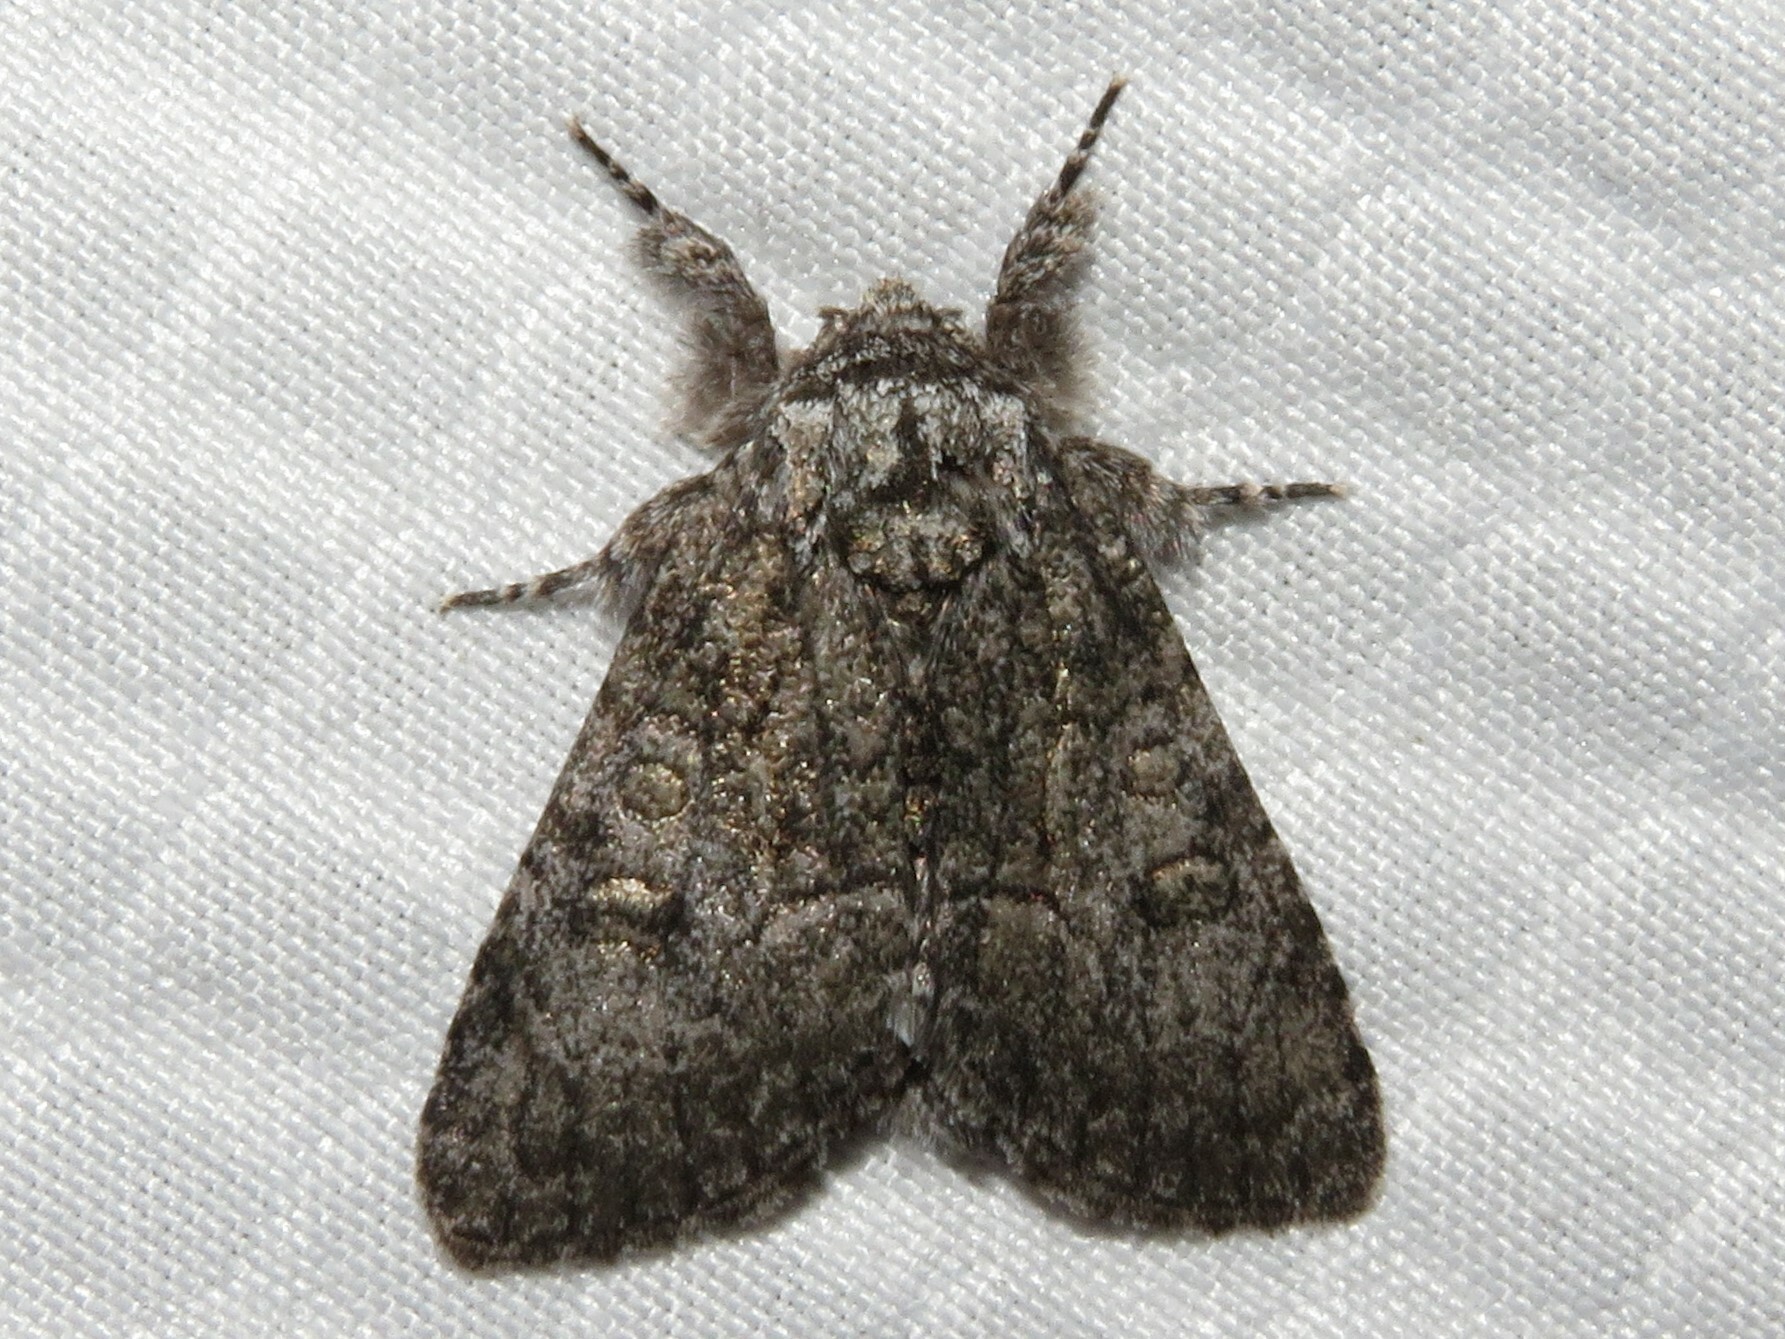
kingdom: Animalia
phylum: Arthropoda
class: Insecta
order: Lepidoptera
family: Noctuidae
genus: Raphia
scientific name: Raphia frater
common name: Brother
